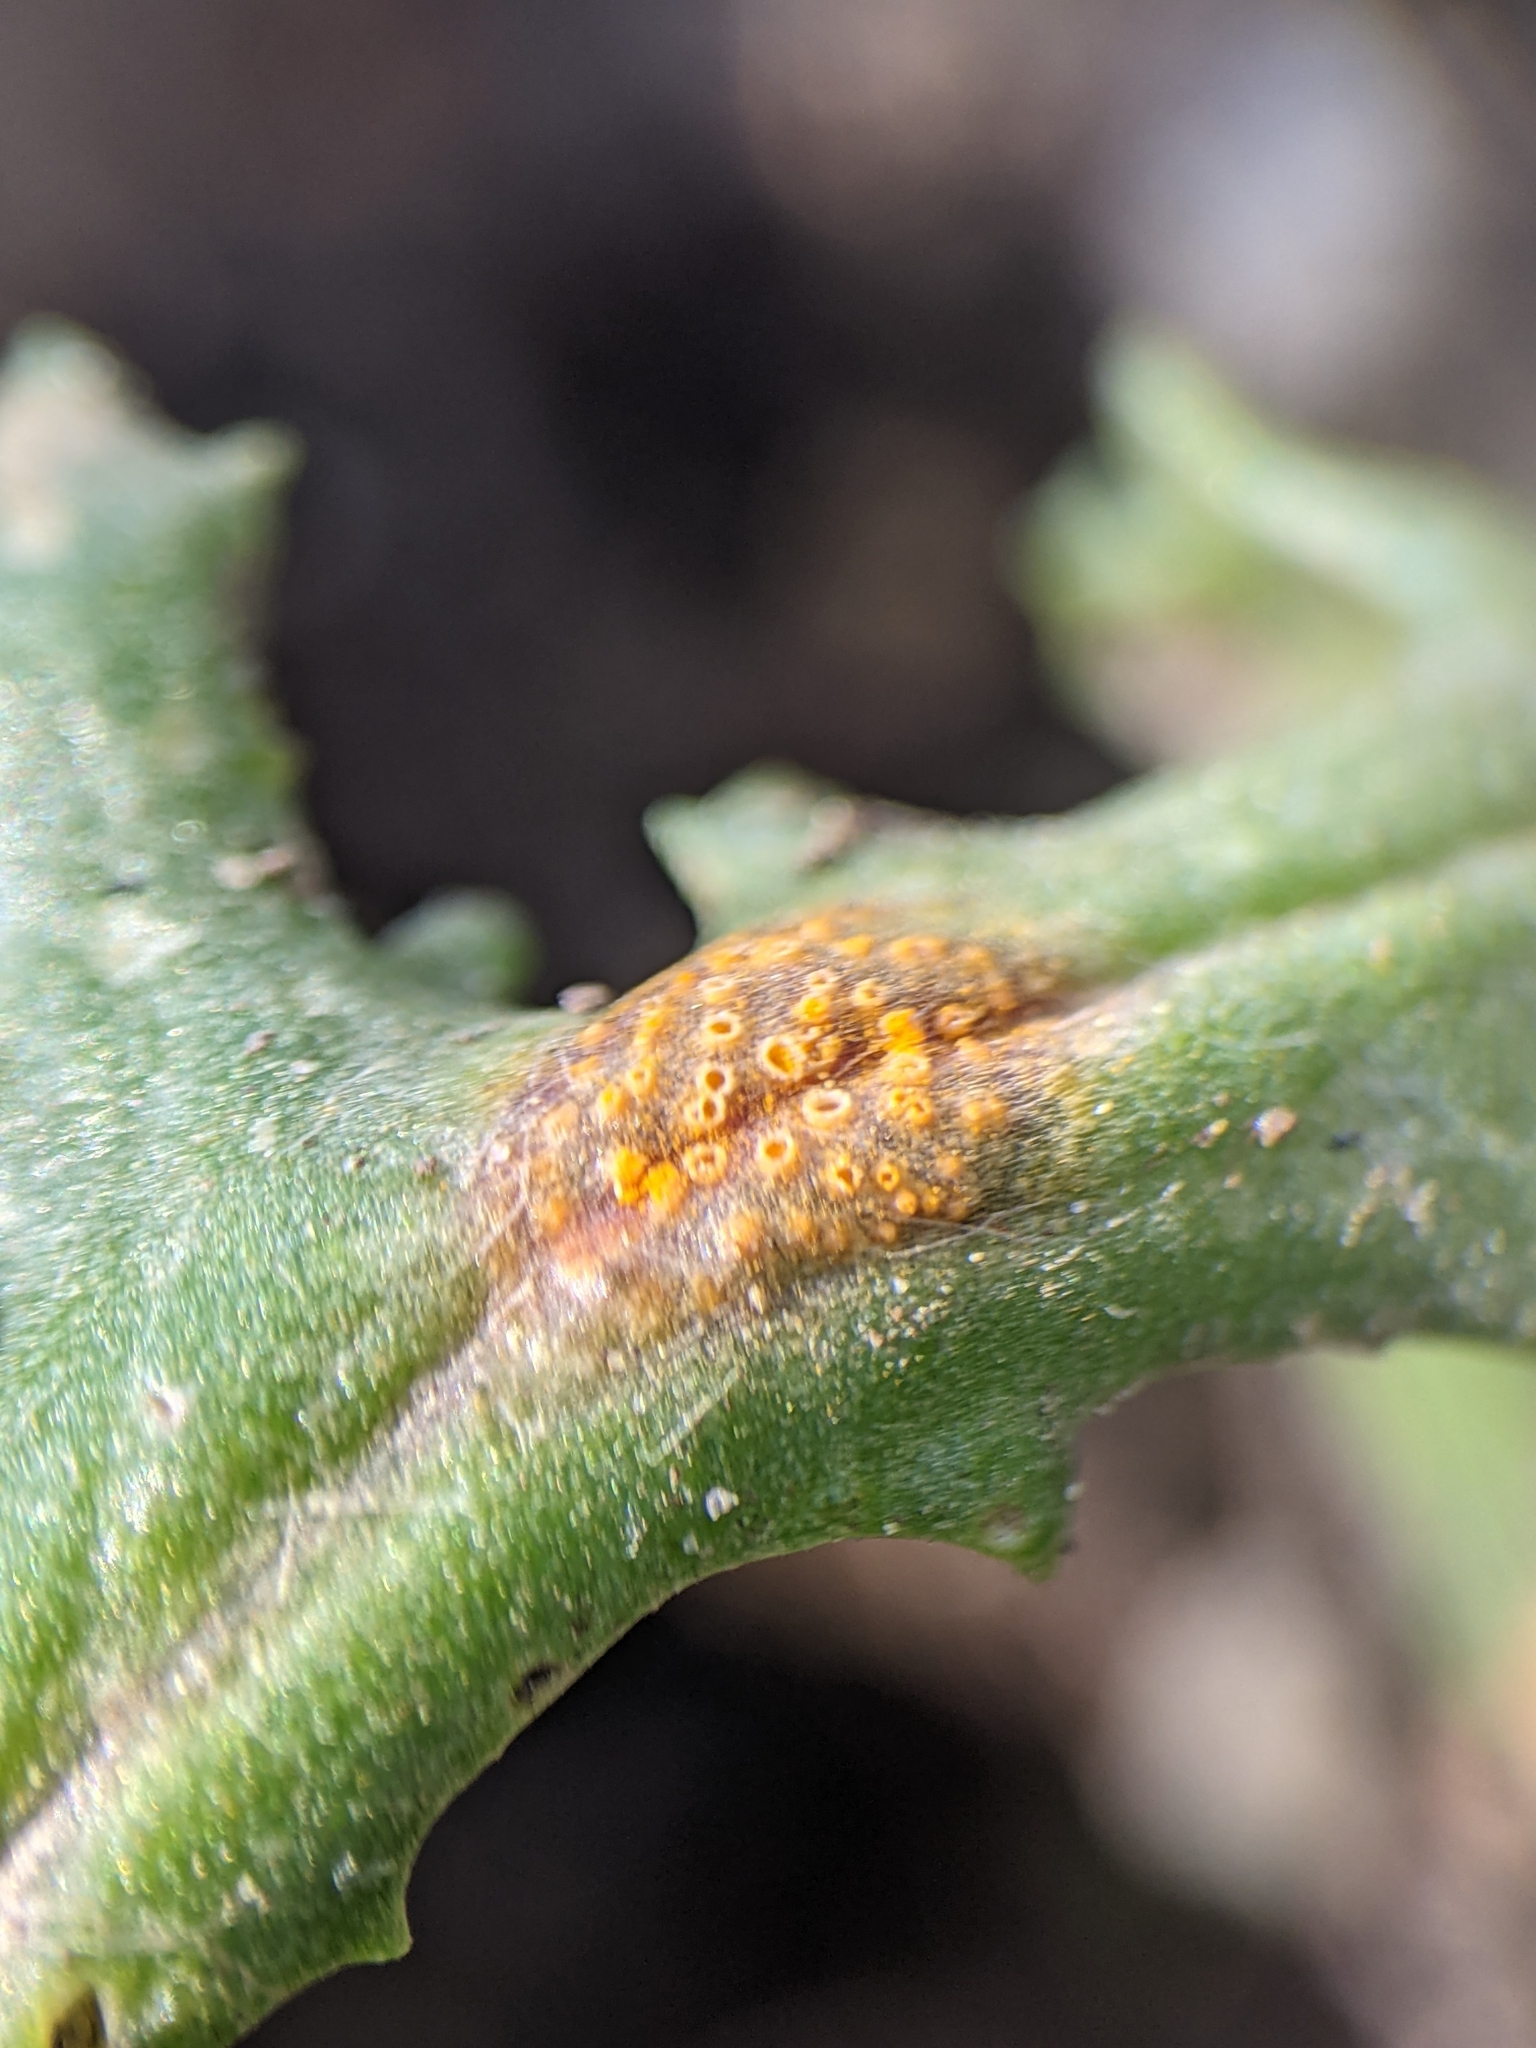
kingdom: Fungi
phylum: Basidiomycota
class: Pucciniomycetes
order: Pucciniales
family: Pucciniaceae
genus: Puccinia
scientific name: Puccinia lagenophorae
